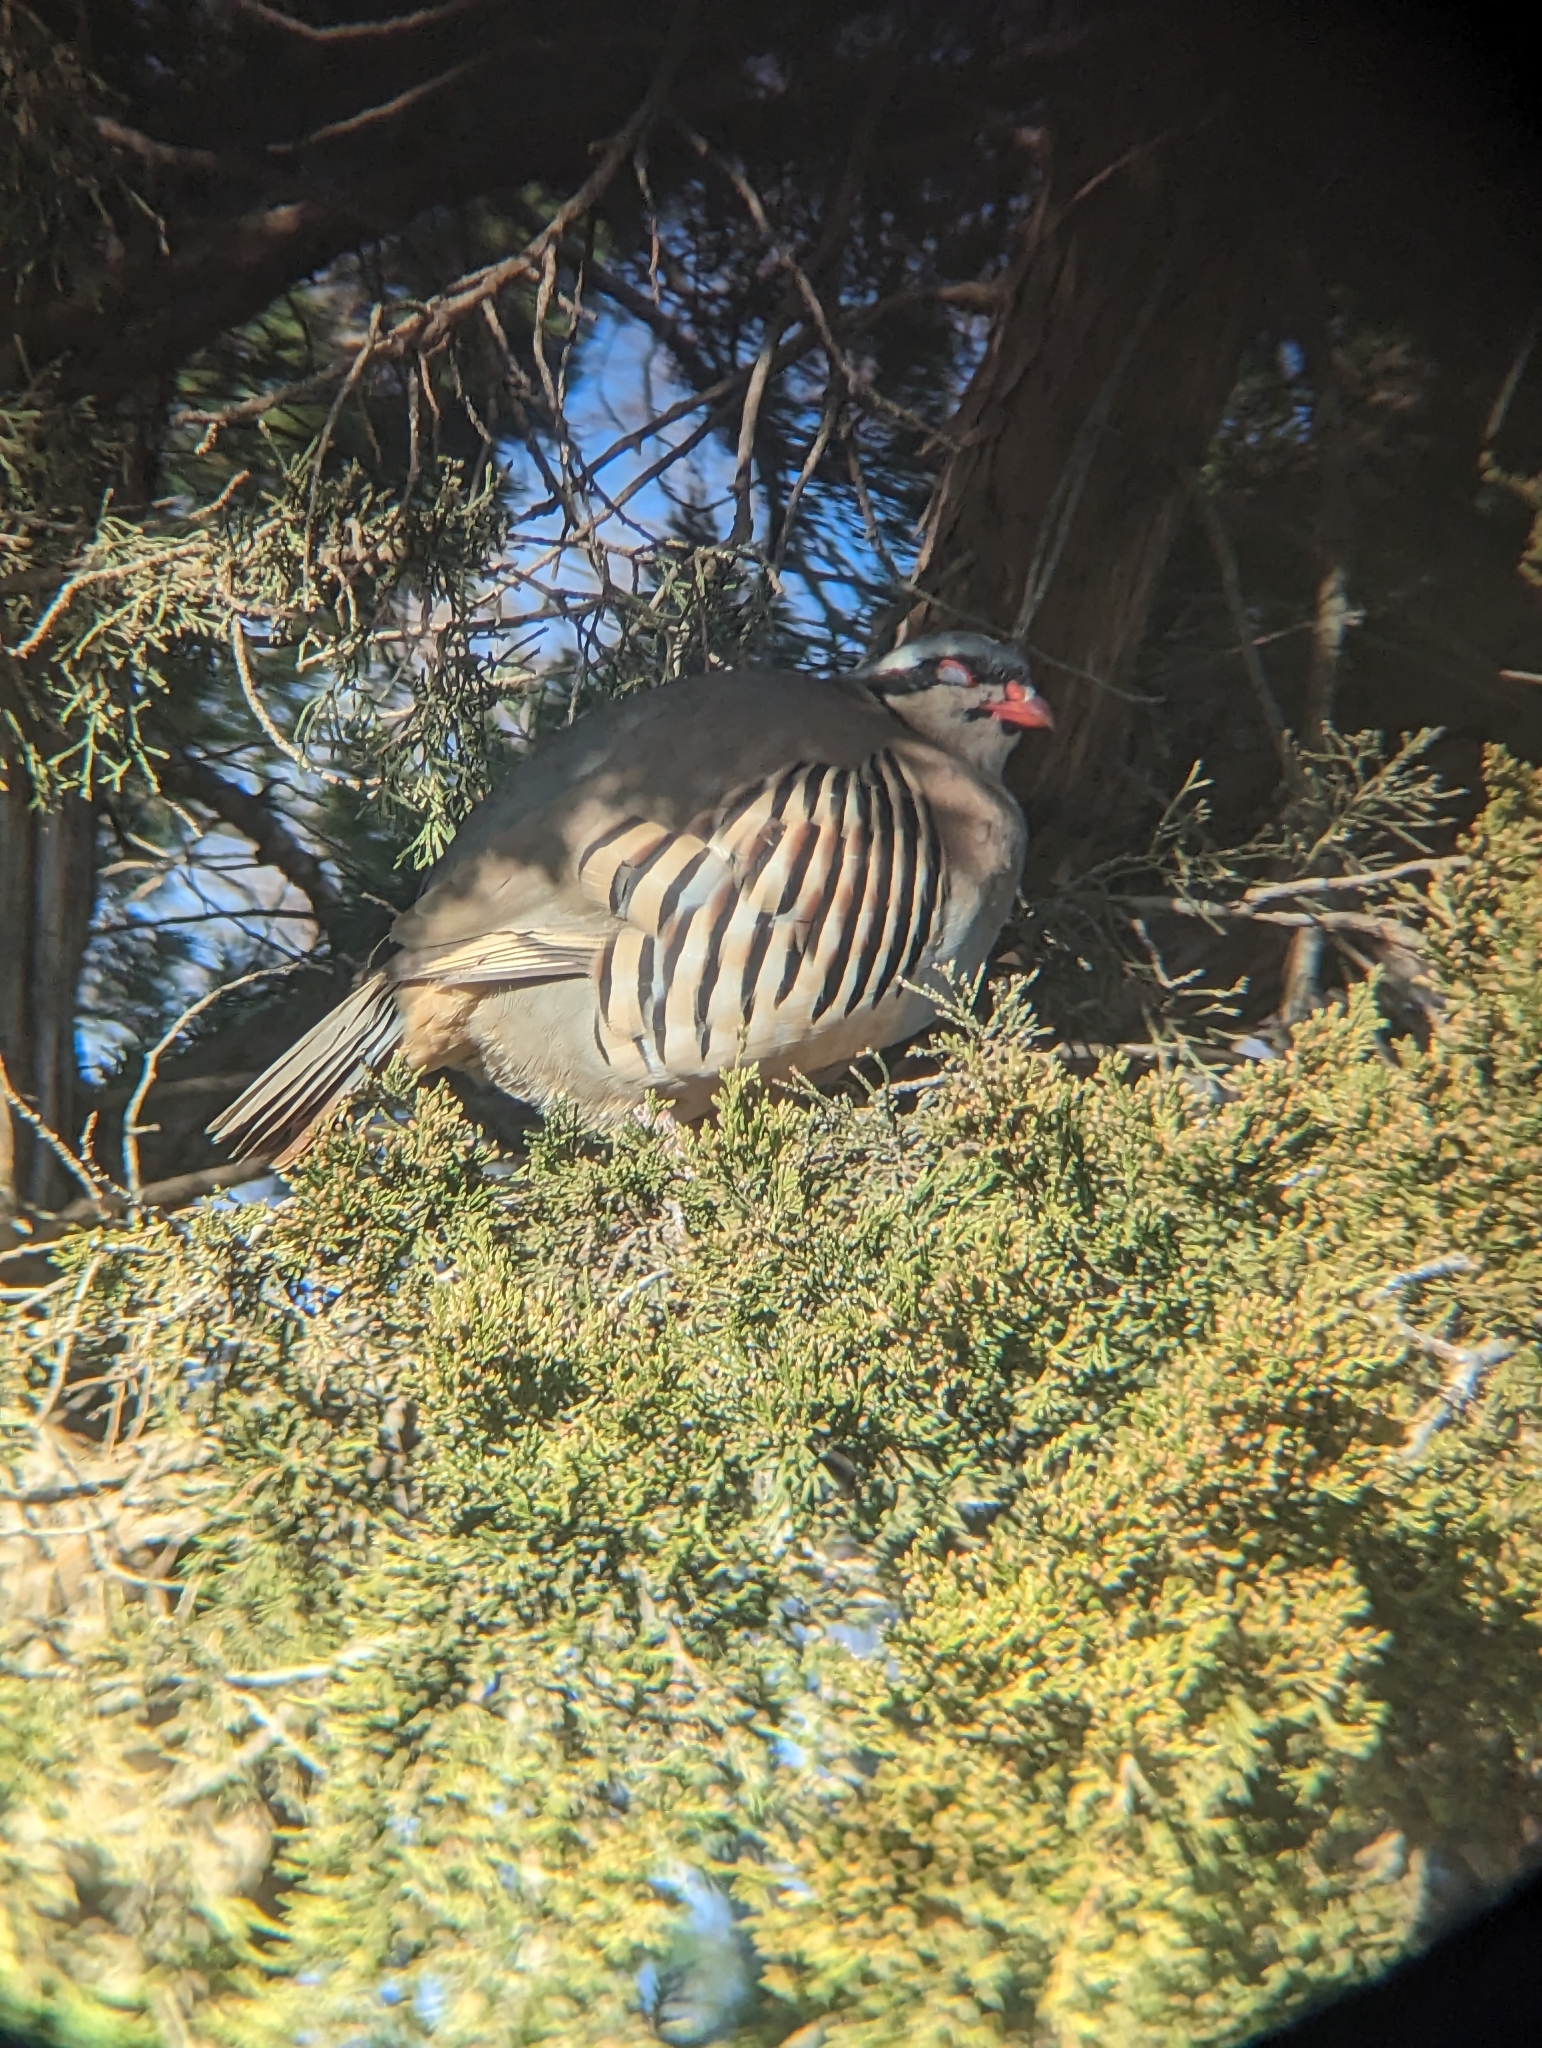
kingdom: Animalia
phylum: Chordata
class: Aves
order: Galliformes
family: Phasianidae
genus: Alectoris
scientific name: Alectoris chukar
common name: Chukar
